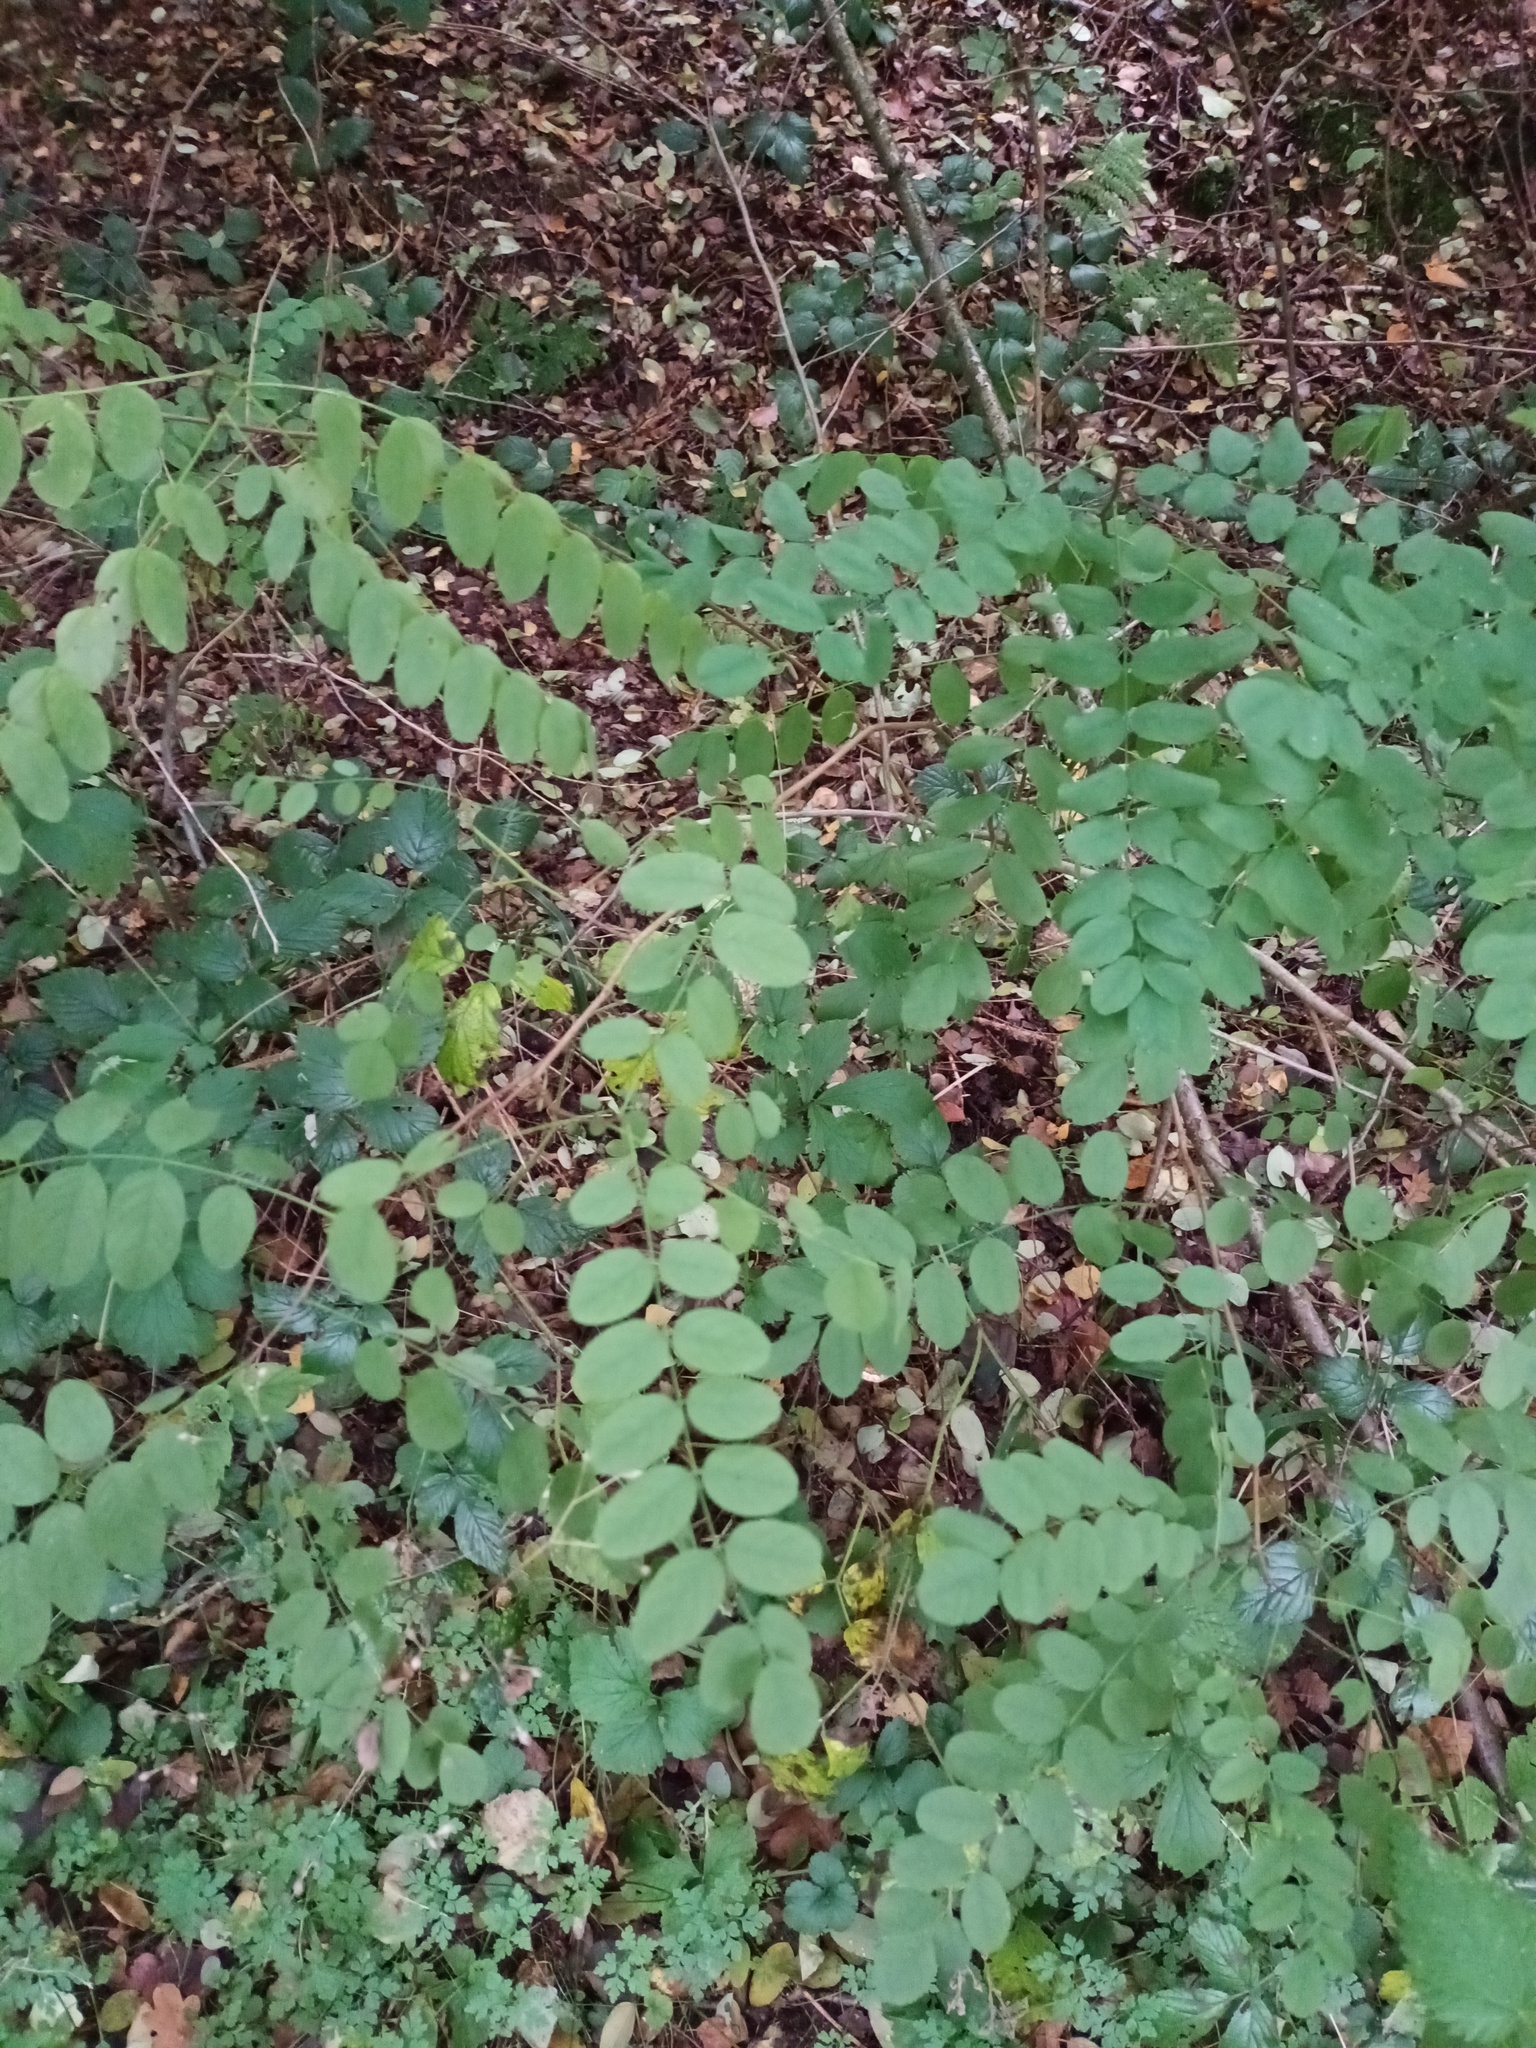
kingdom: Plantae
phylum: Tracheophyta
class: Magnoliopsida
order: Fabales
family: Fabaceae
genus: Robinia
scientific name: Robinia pseudoacacia
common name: Black locust
